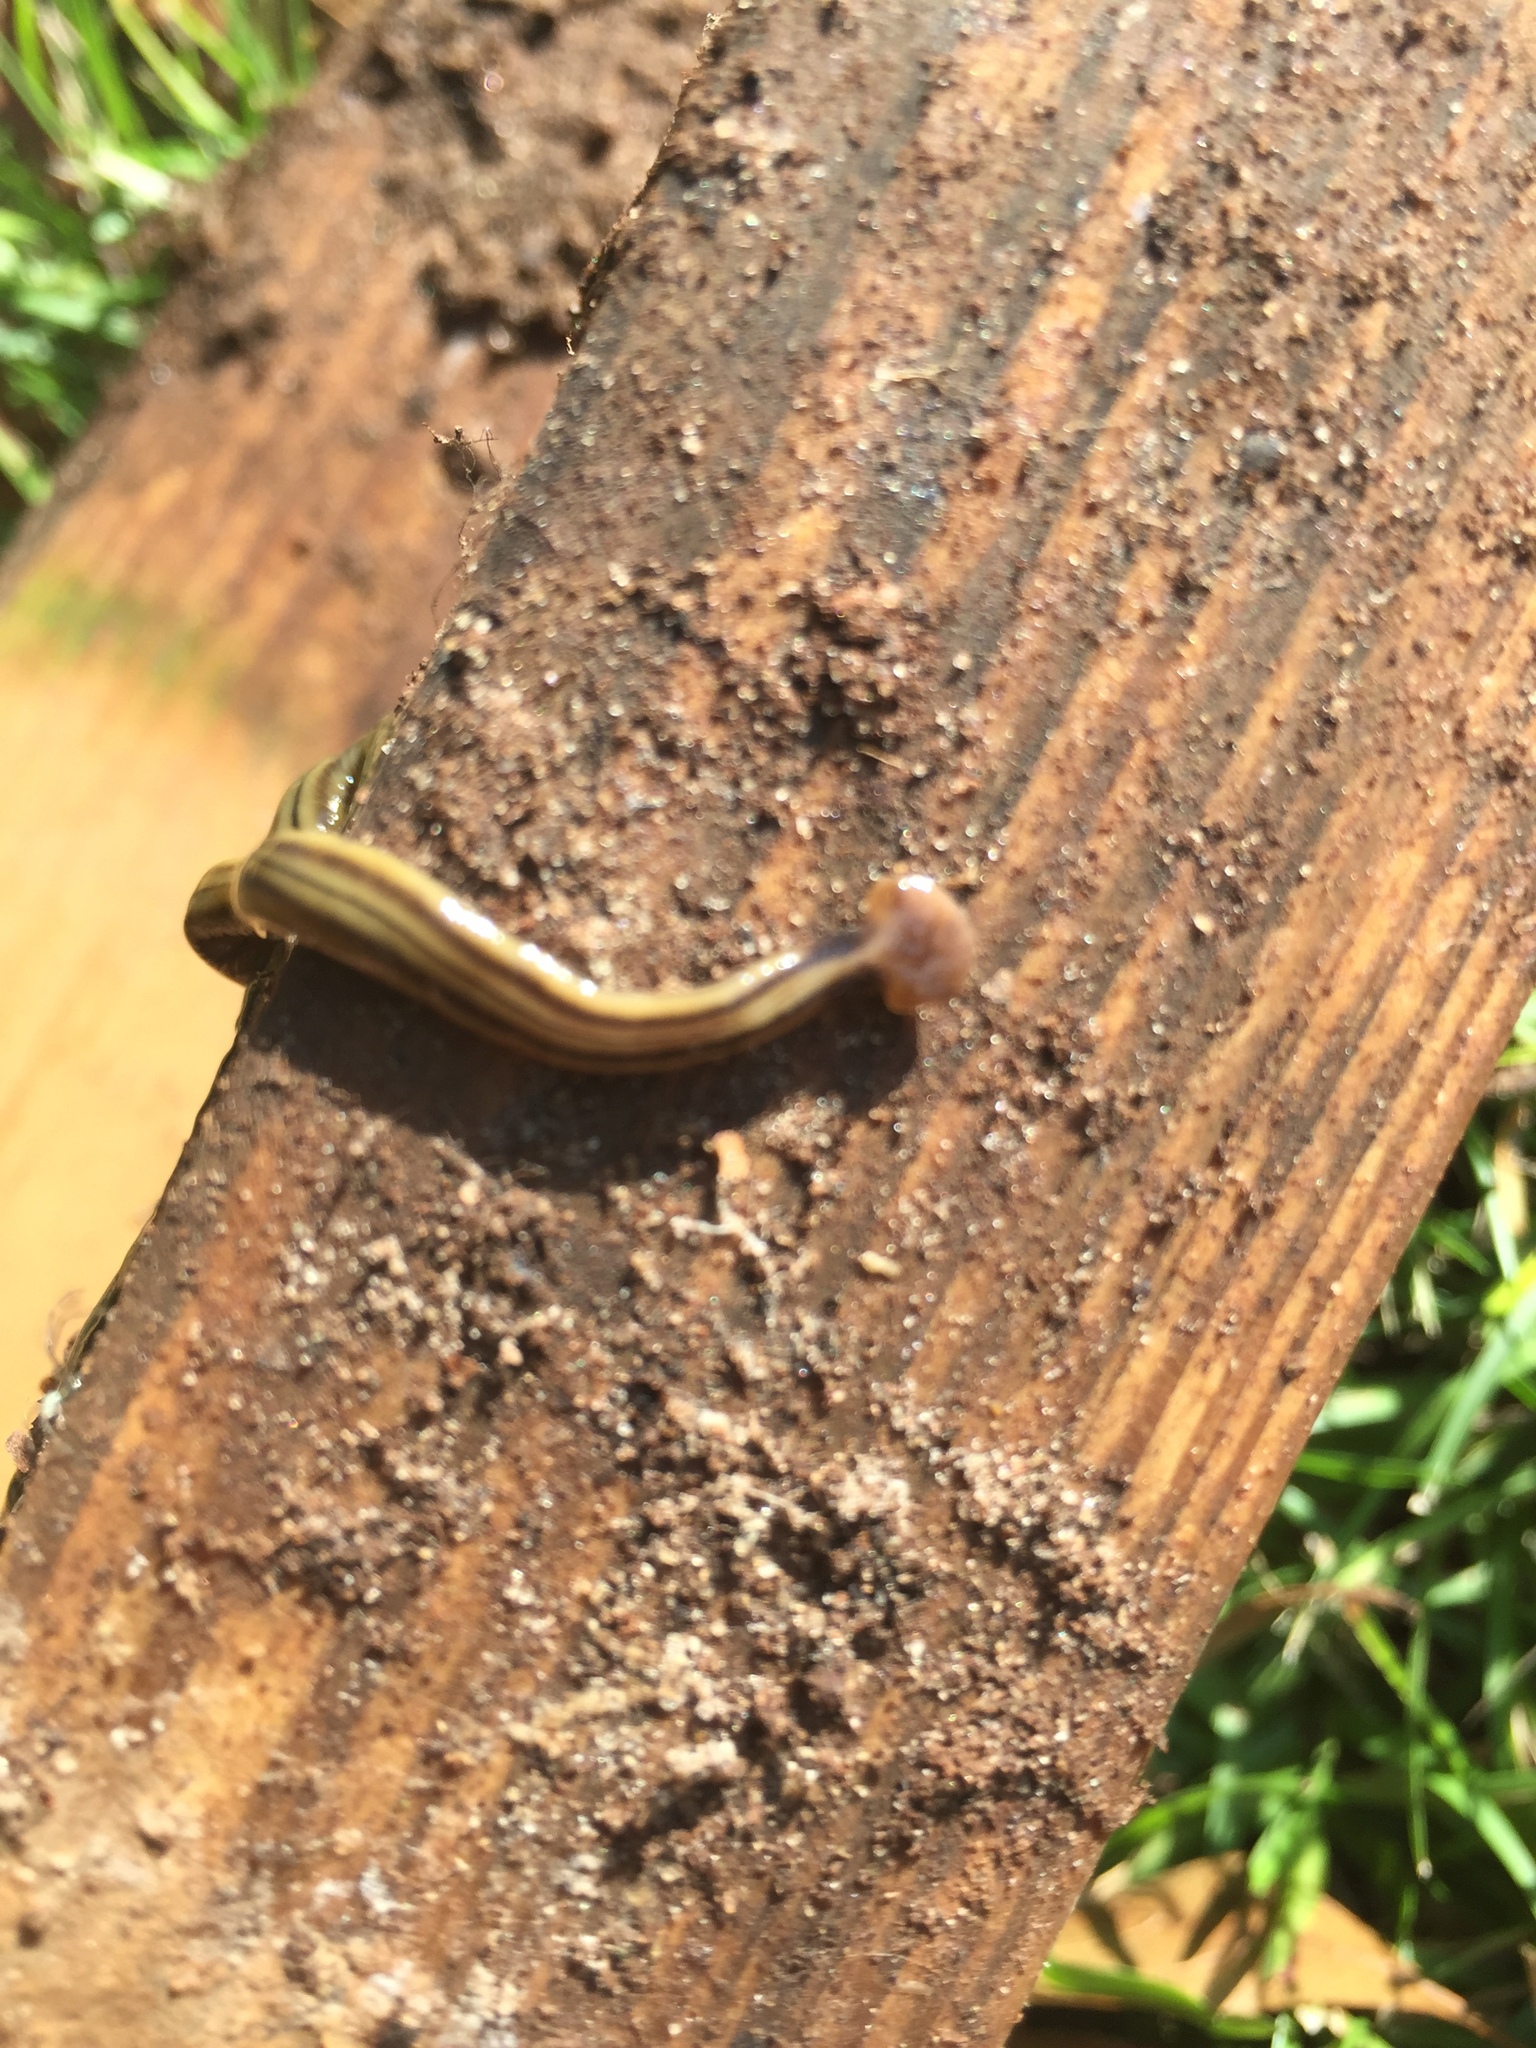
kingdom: Animalia
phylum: Platyhelminthes
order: Tricladida
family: Geoplanidae
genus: Bipalium
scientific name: Bipalium kewense
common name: Hammerhead flatworm
